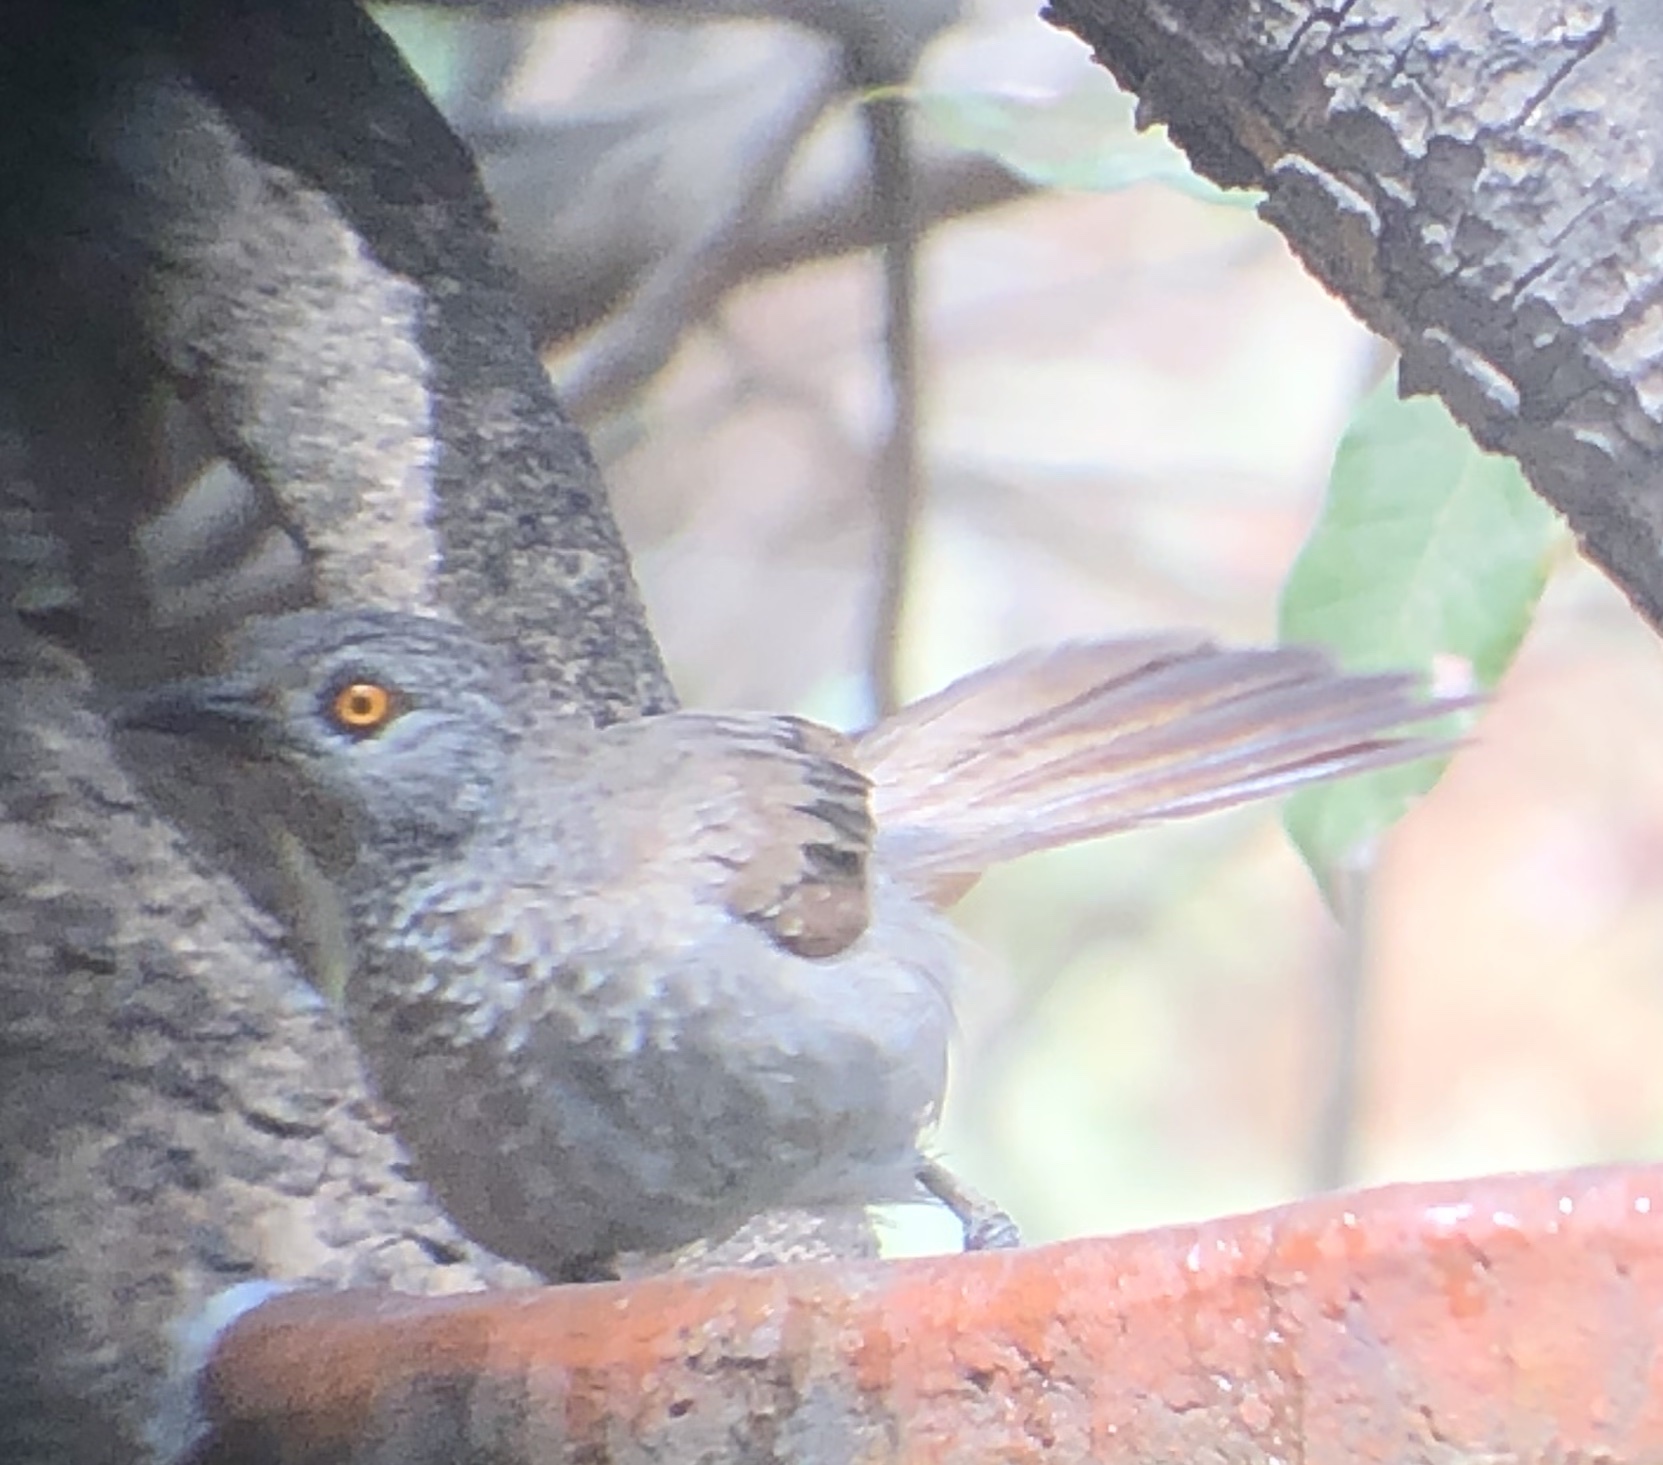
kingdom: Animalia
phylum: Chordata
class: Aves
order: Passeriformes
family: Leiothrichidae
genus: Turdoides
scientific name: Turdoides plebejus
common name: Brown babbler
